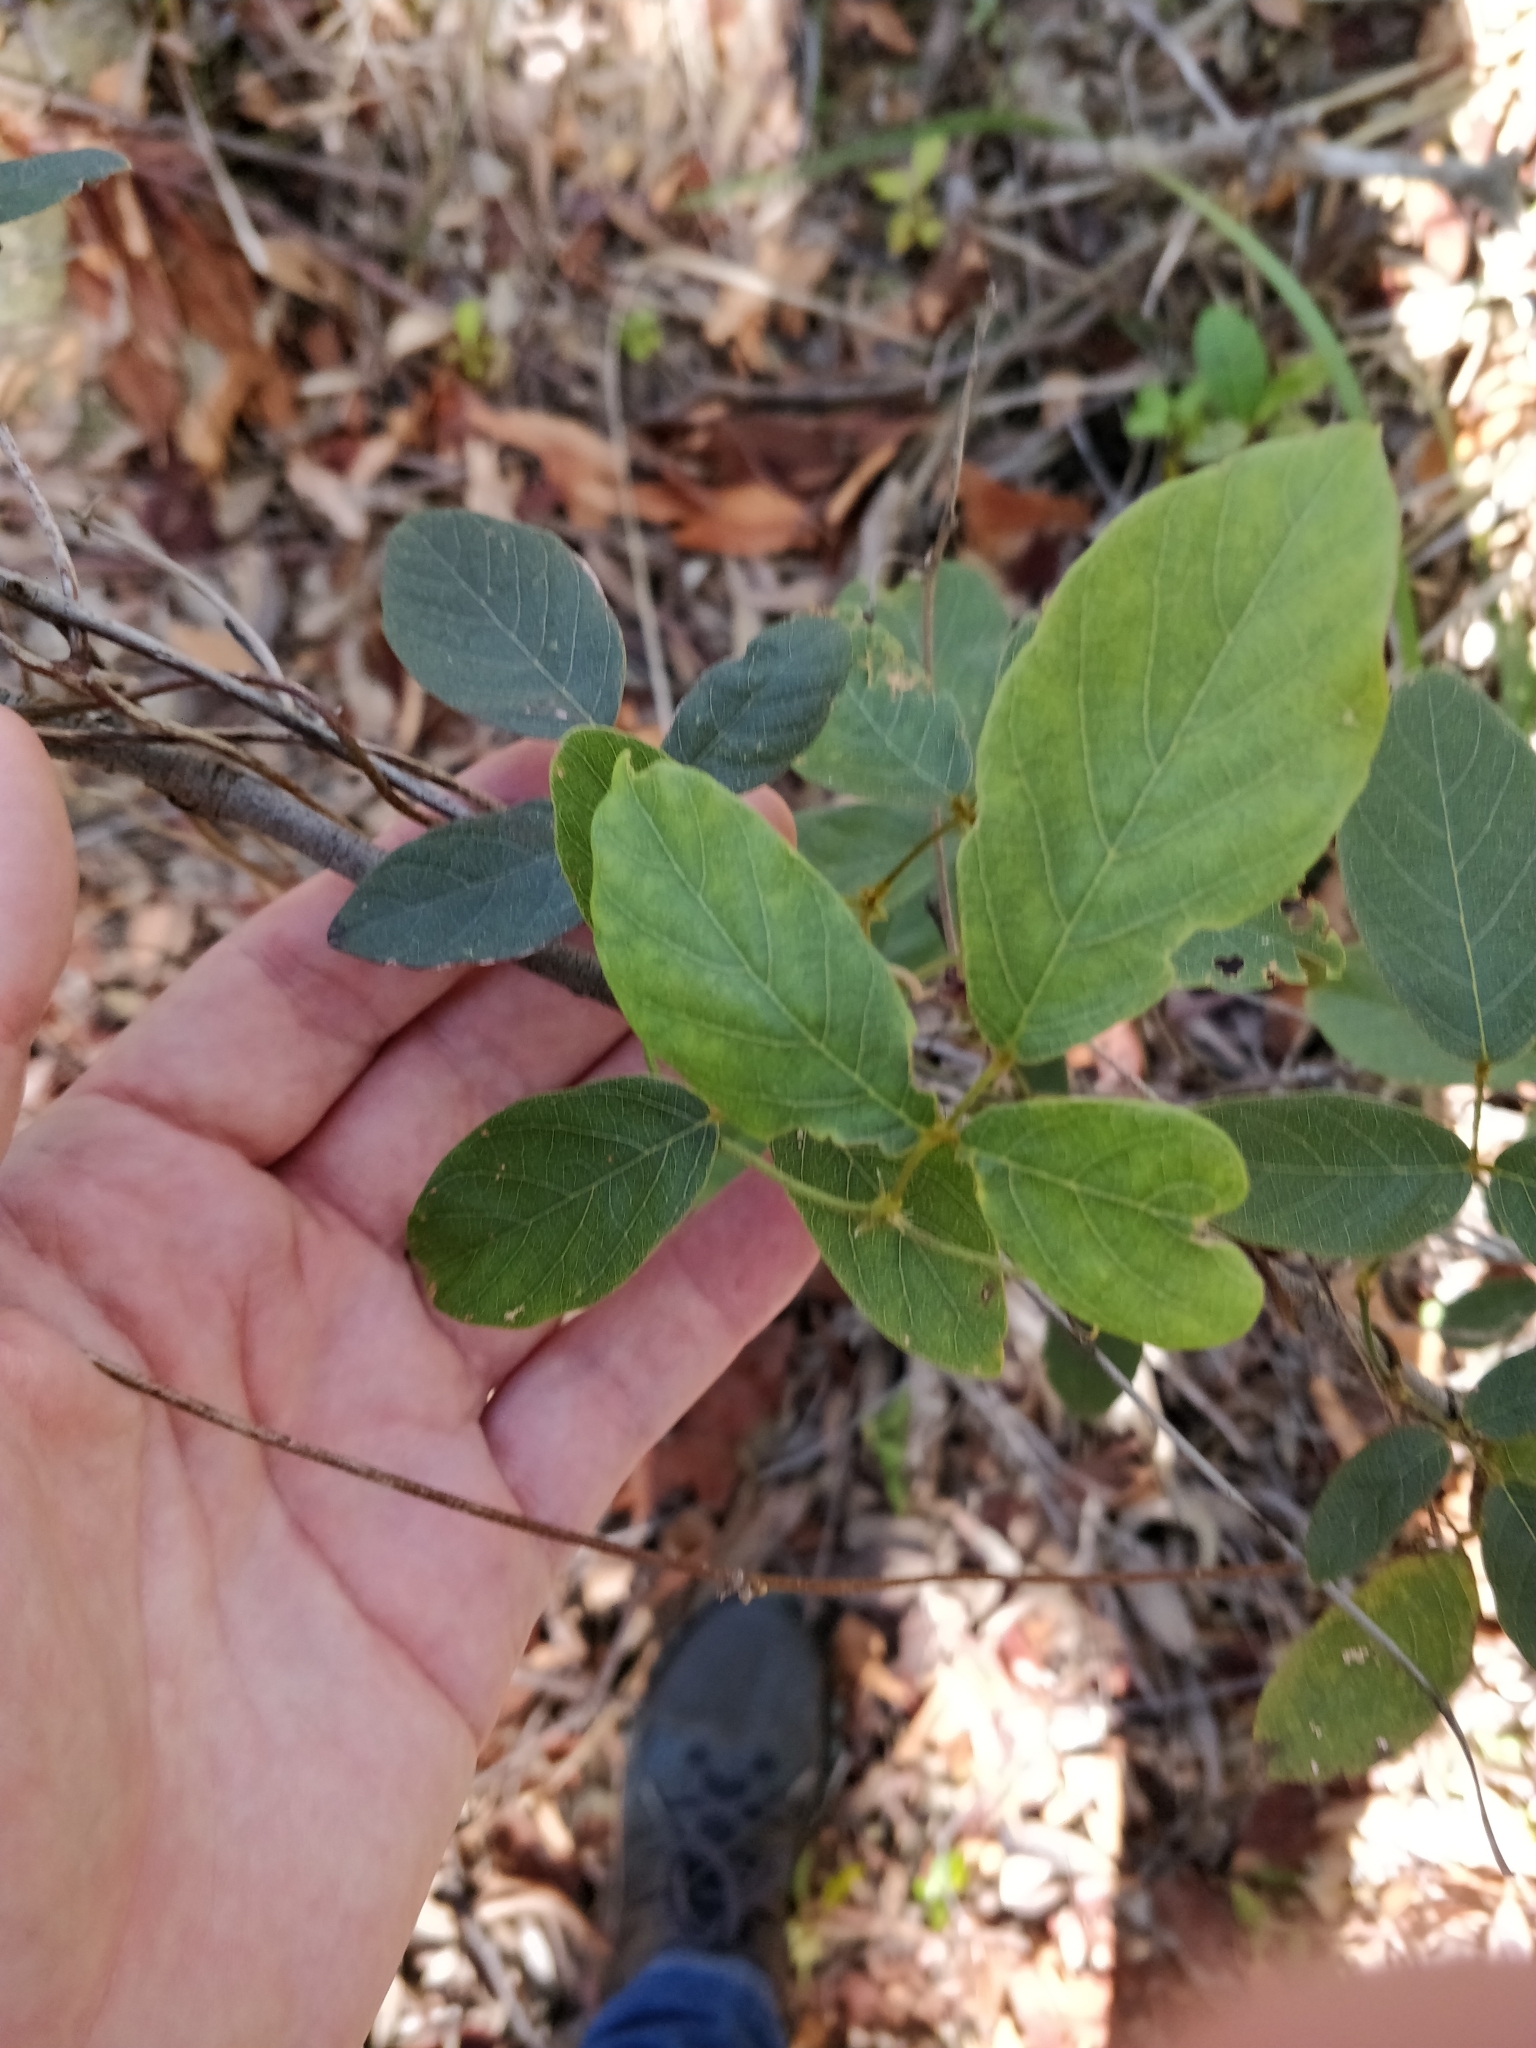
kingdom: Plantae
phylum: Tracheophyta
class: Magnoliopsida
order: Fabales
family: Fabaceae
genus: Kennedia
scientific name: Kennedia rubicunda
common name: Red kennedy-pea
